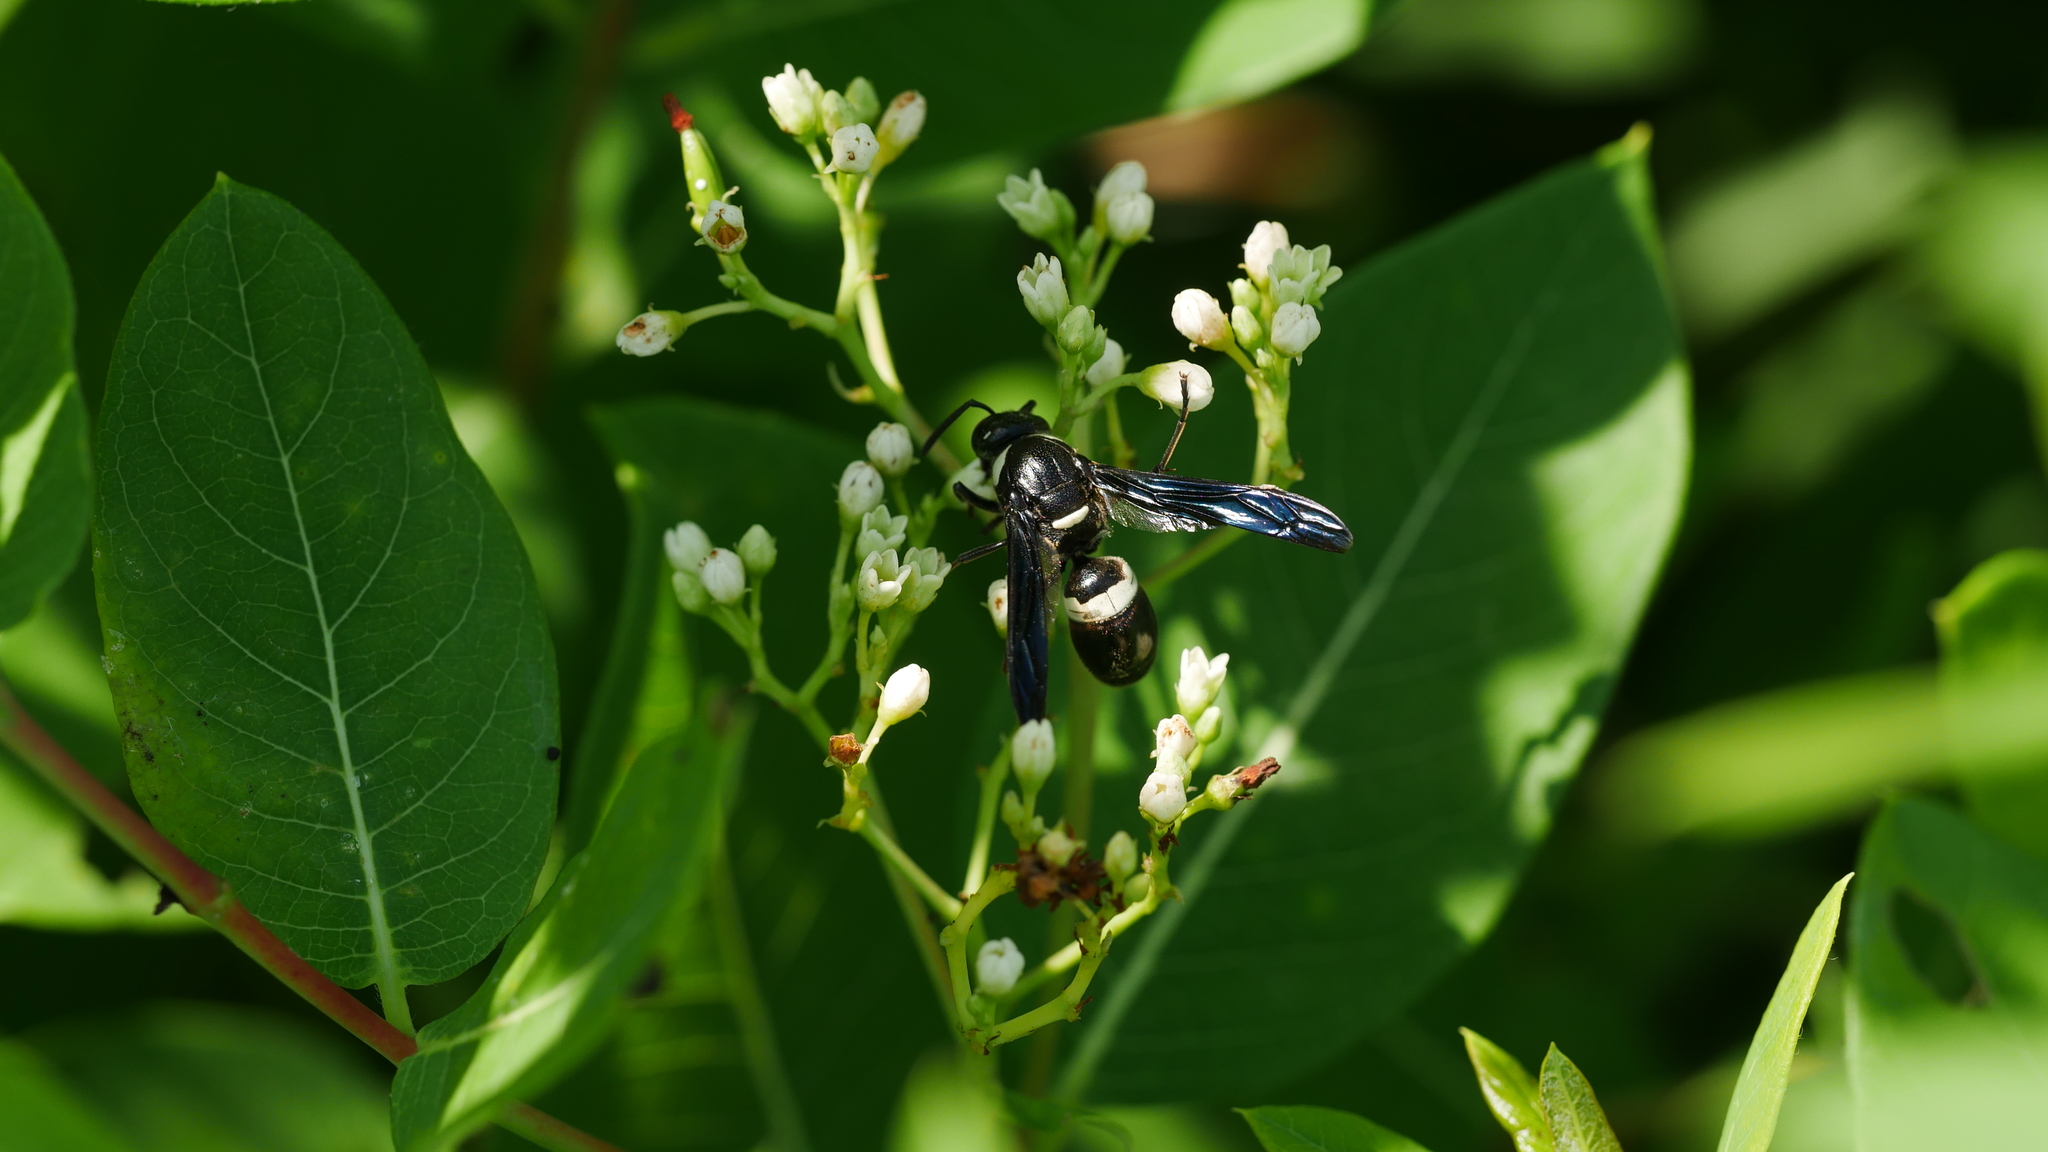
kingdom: Animalia
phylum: Arthropoda
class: Insecta
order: Hymenoptera
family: Eumenidae
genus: Monobia
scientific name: Monobia quadridens
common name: Four-toothed mason wasp
